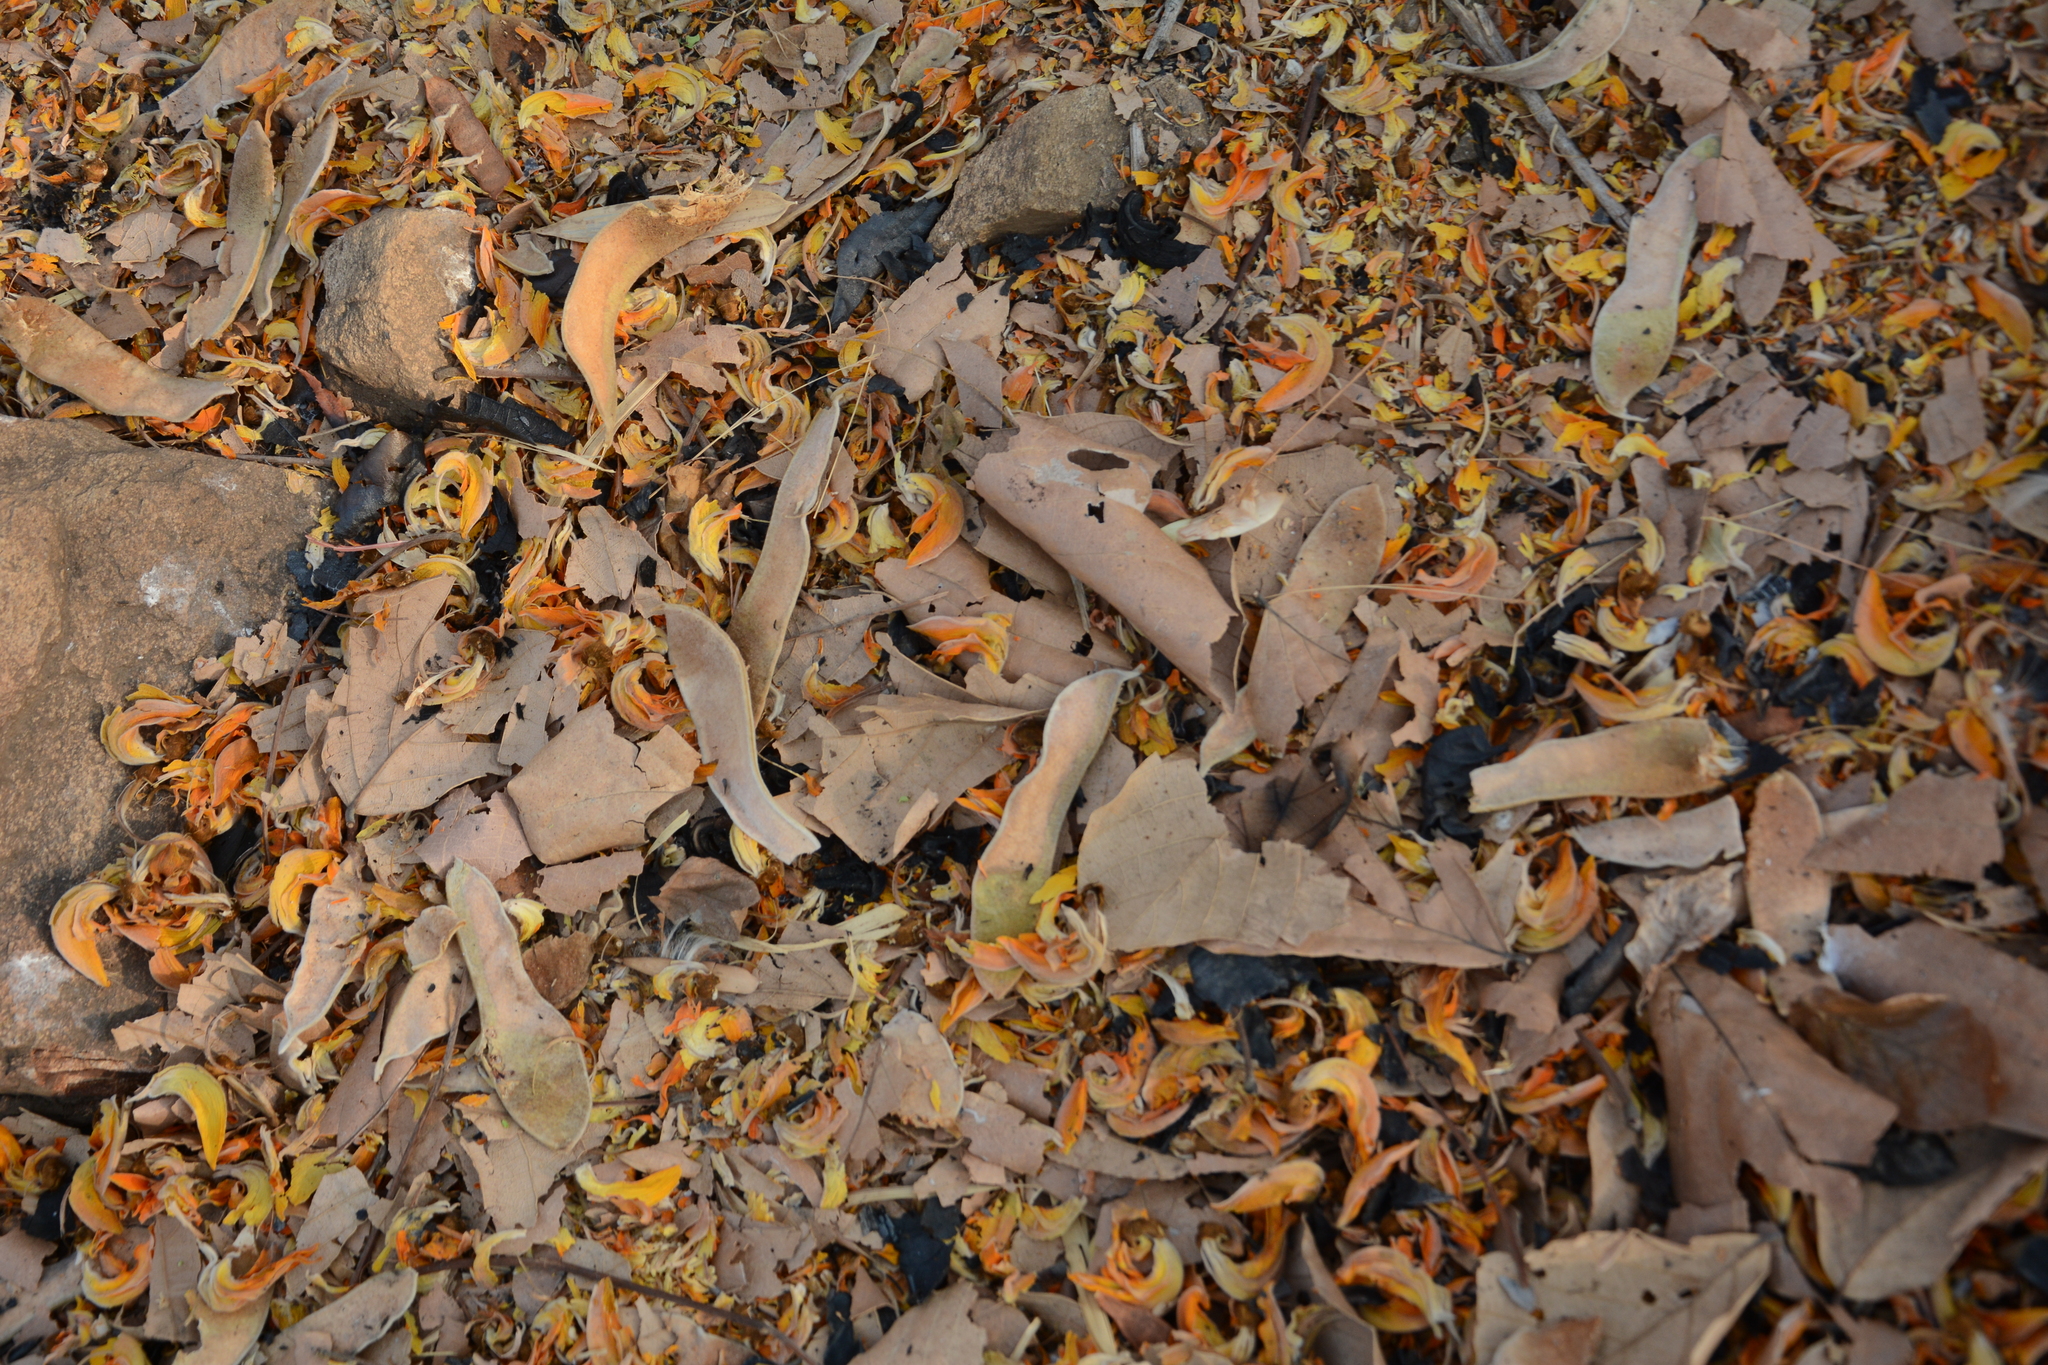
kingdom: Plantae
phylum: Tracheophyta
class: Magnoliopsida
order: Fabales
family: Fabaceae
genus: Butea
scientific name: Butea monosperma
